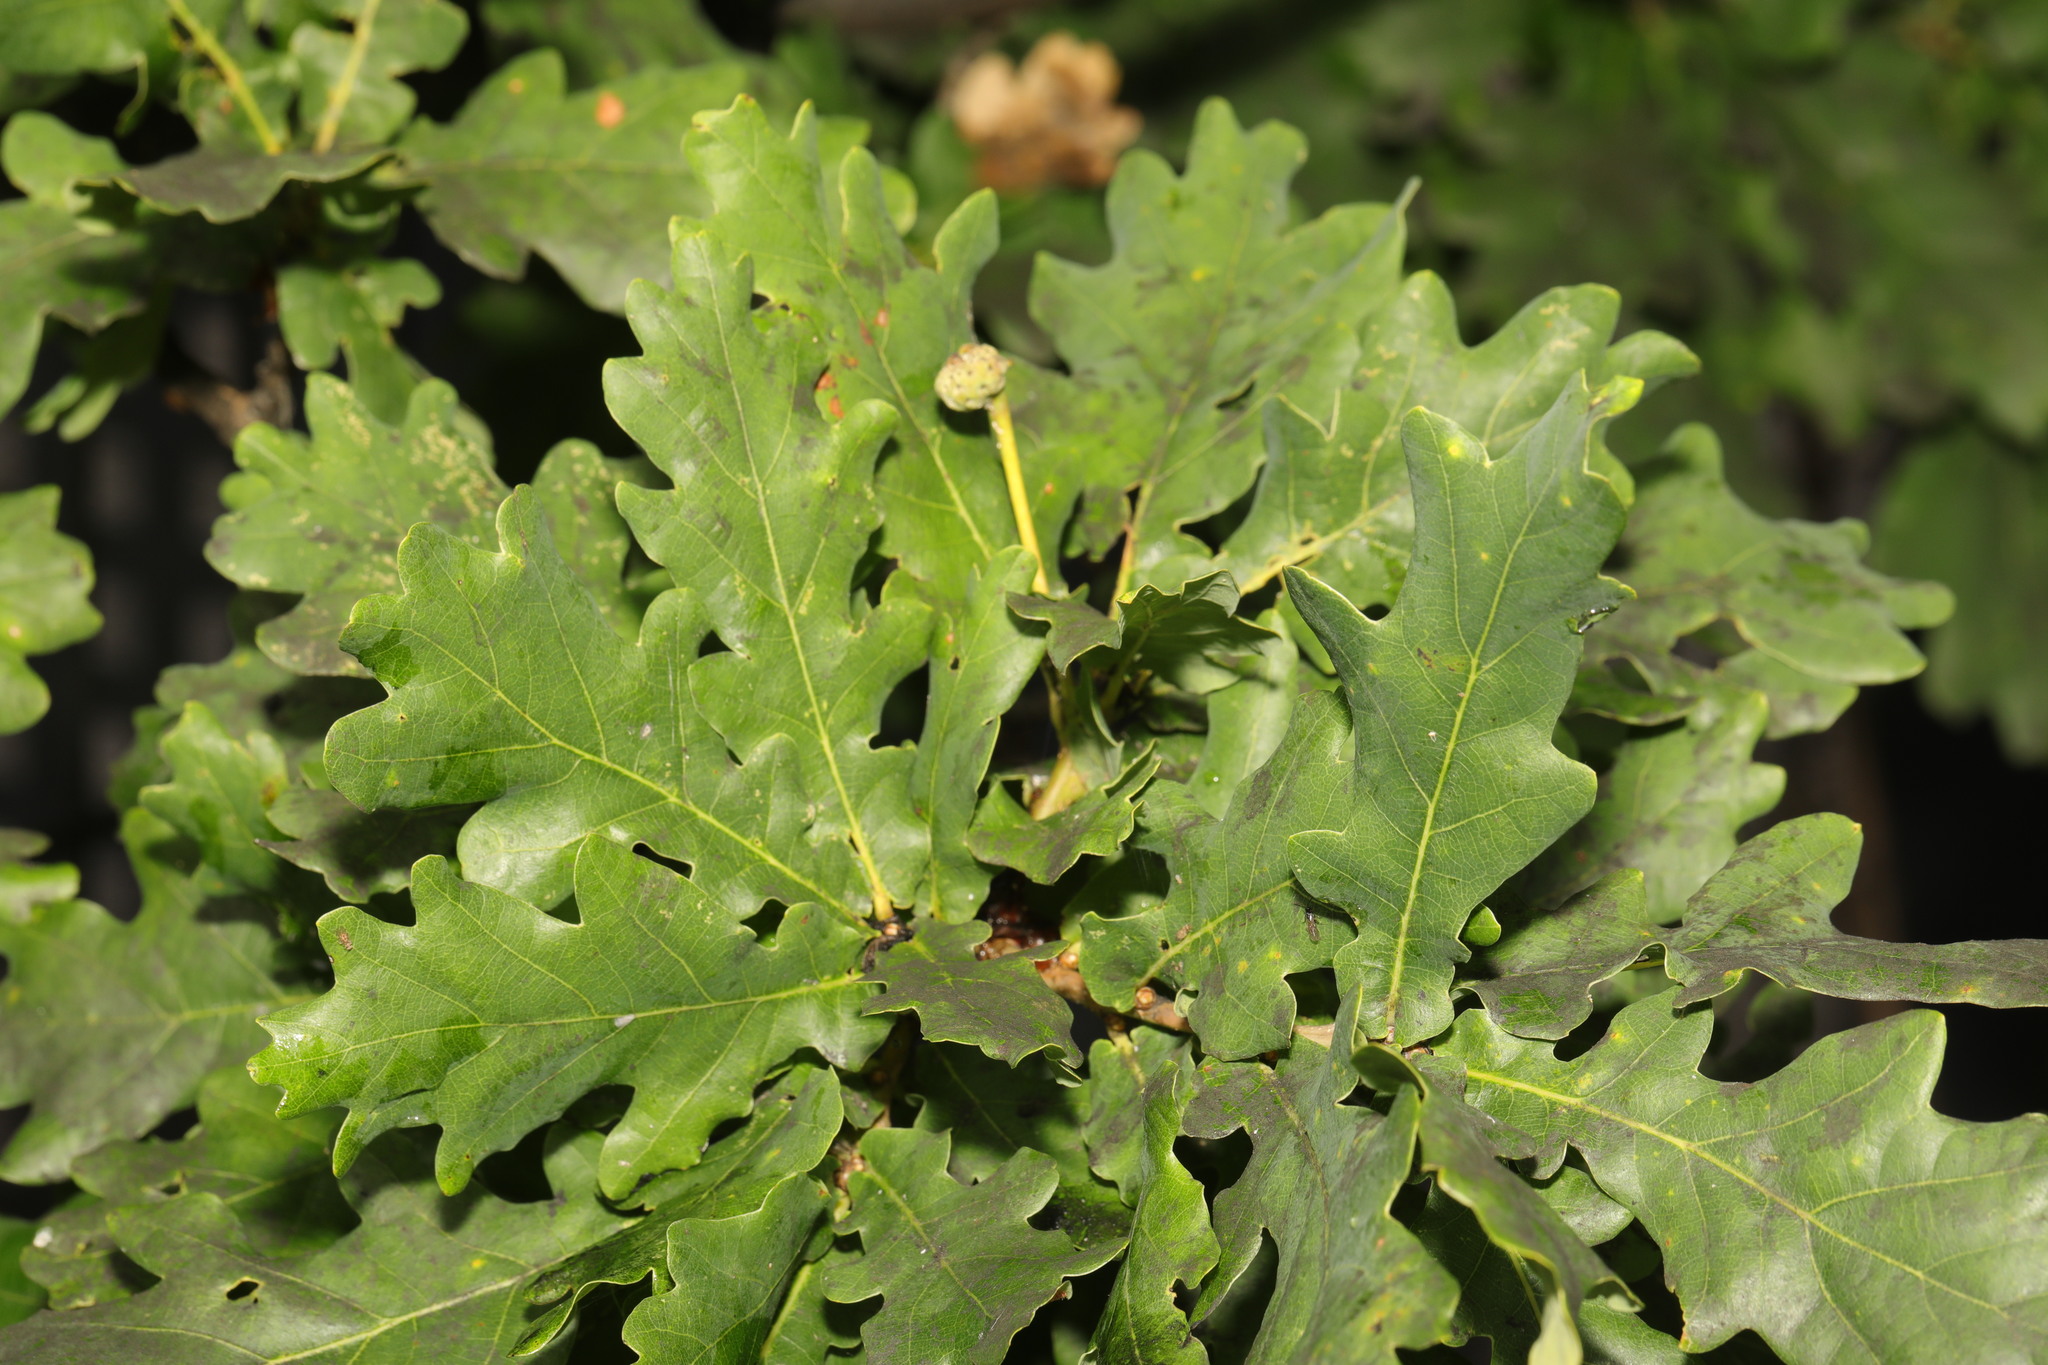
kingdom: Plantae
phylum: Tracheophyta
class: Magnoliopsida
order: Fagales
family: Fagaceae
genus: Quercus
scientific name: Quercus robur
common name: Pedunculate oak
